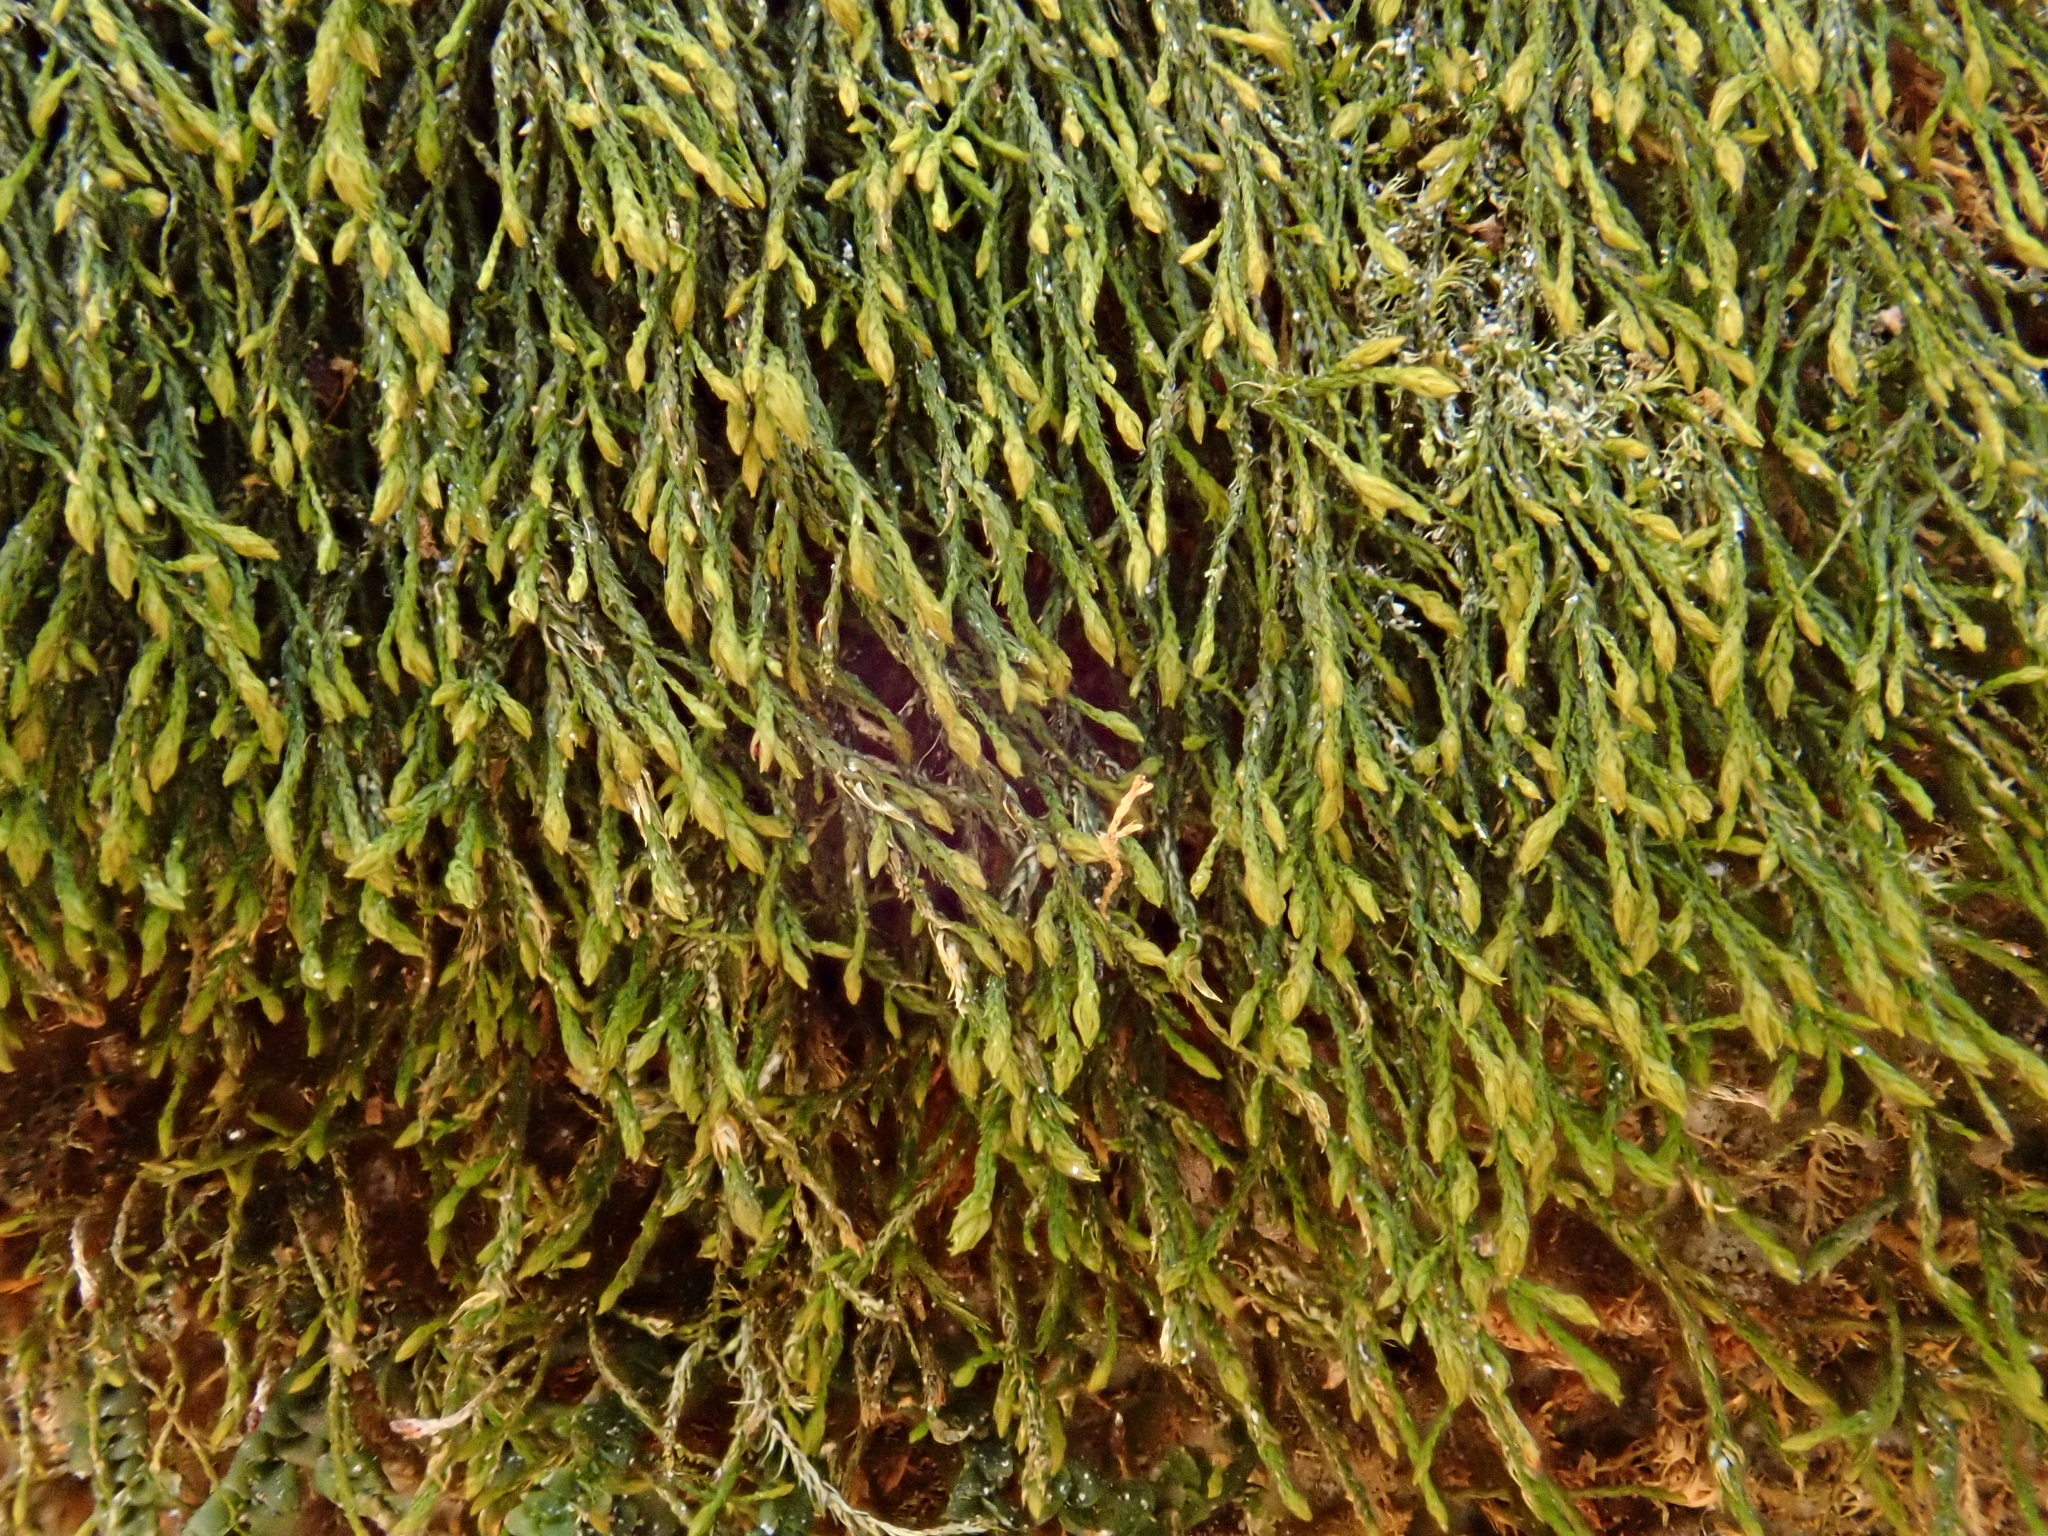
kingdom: Plantae
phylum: Bryophyta
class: Bryopsida
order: Hypnales
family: Pseudoleskeellaceae
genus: Pseudoleskeella
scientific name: Pseudoleskeella catenulata
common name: Chained leskea
